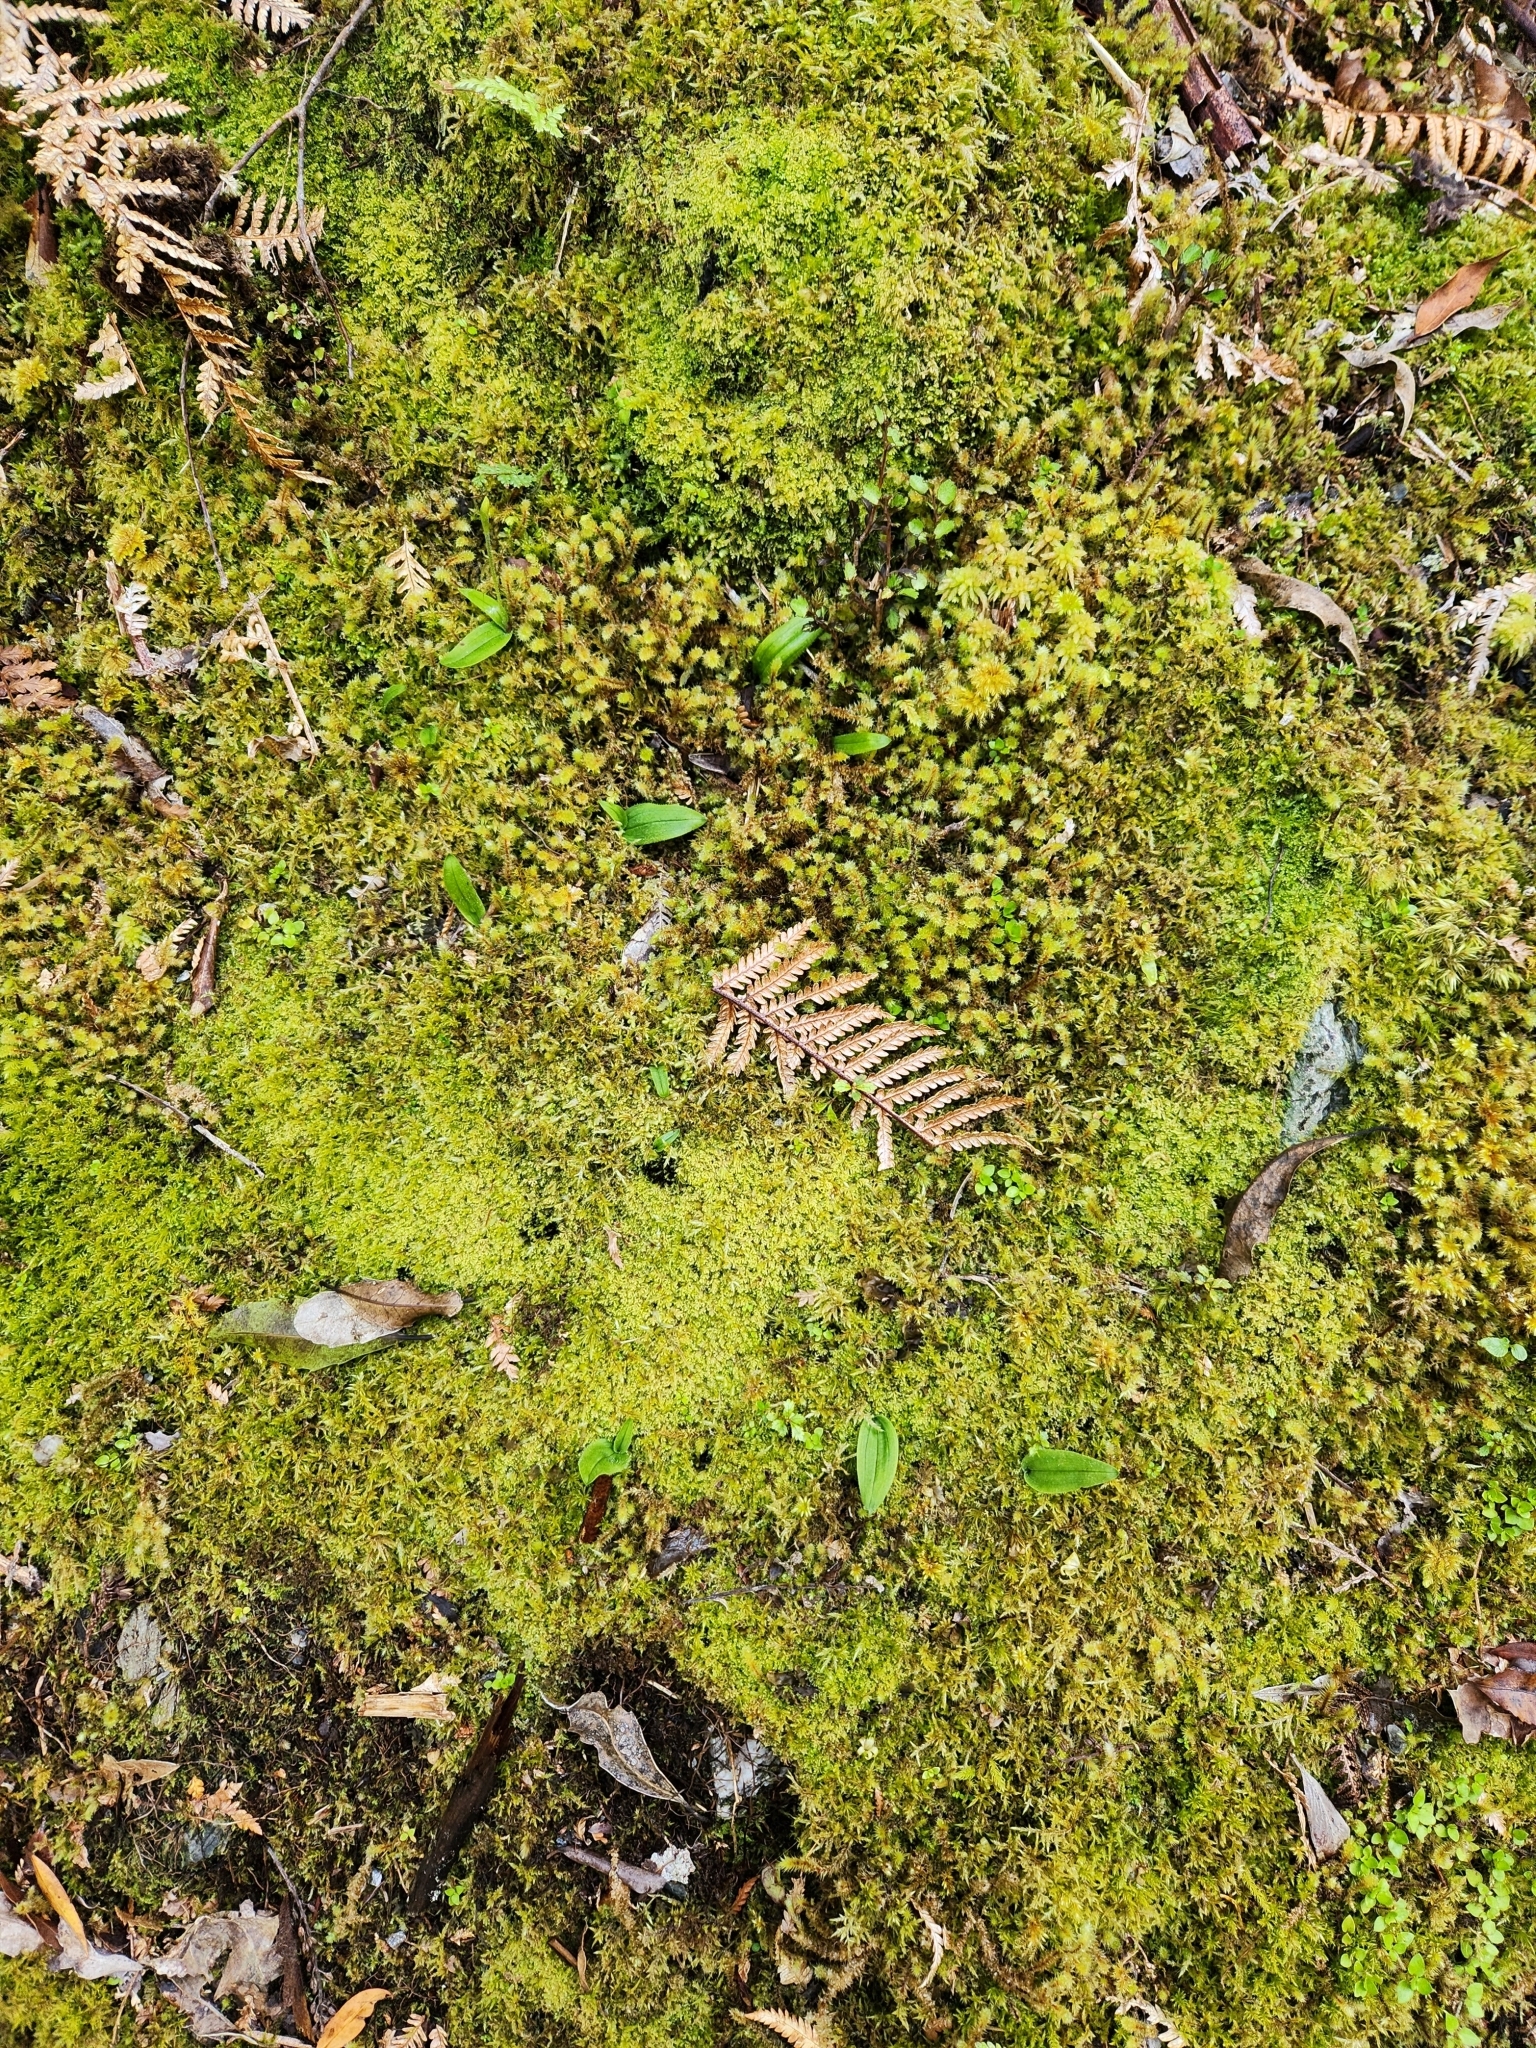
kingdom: Plantae
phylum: Tracheophyta
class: Liliopsida
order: Asparagales
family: Orchidaceae
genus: Aporostylis
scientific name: Aporostylis bifolia
